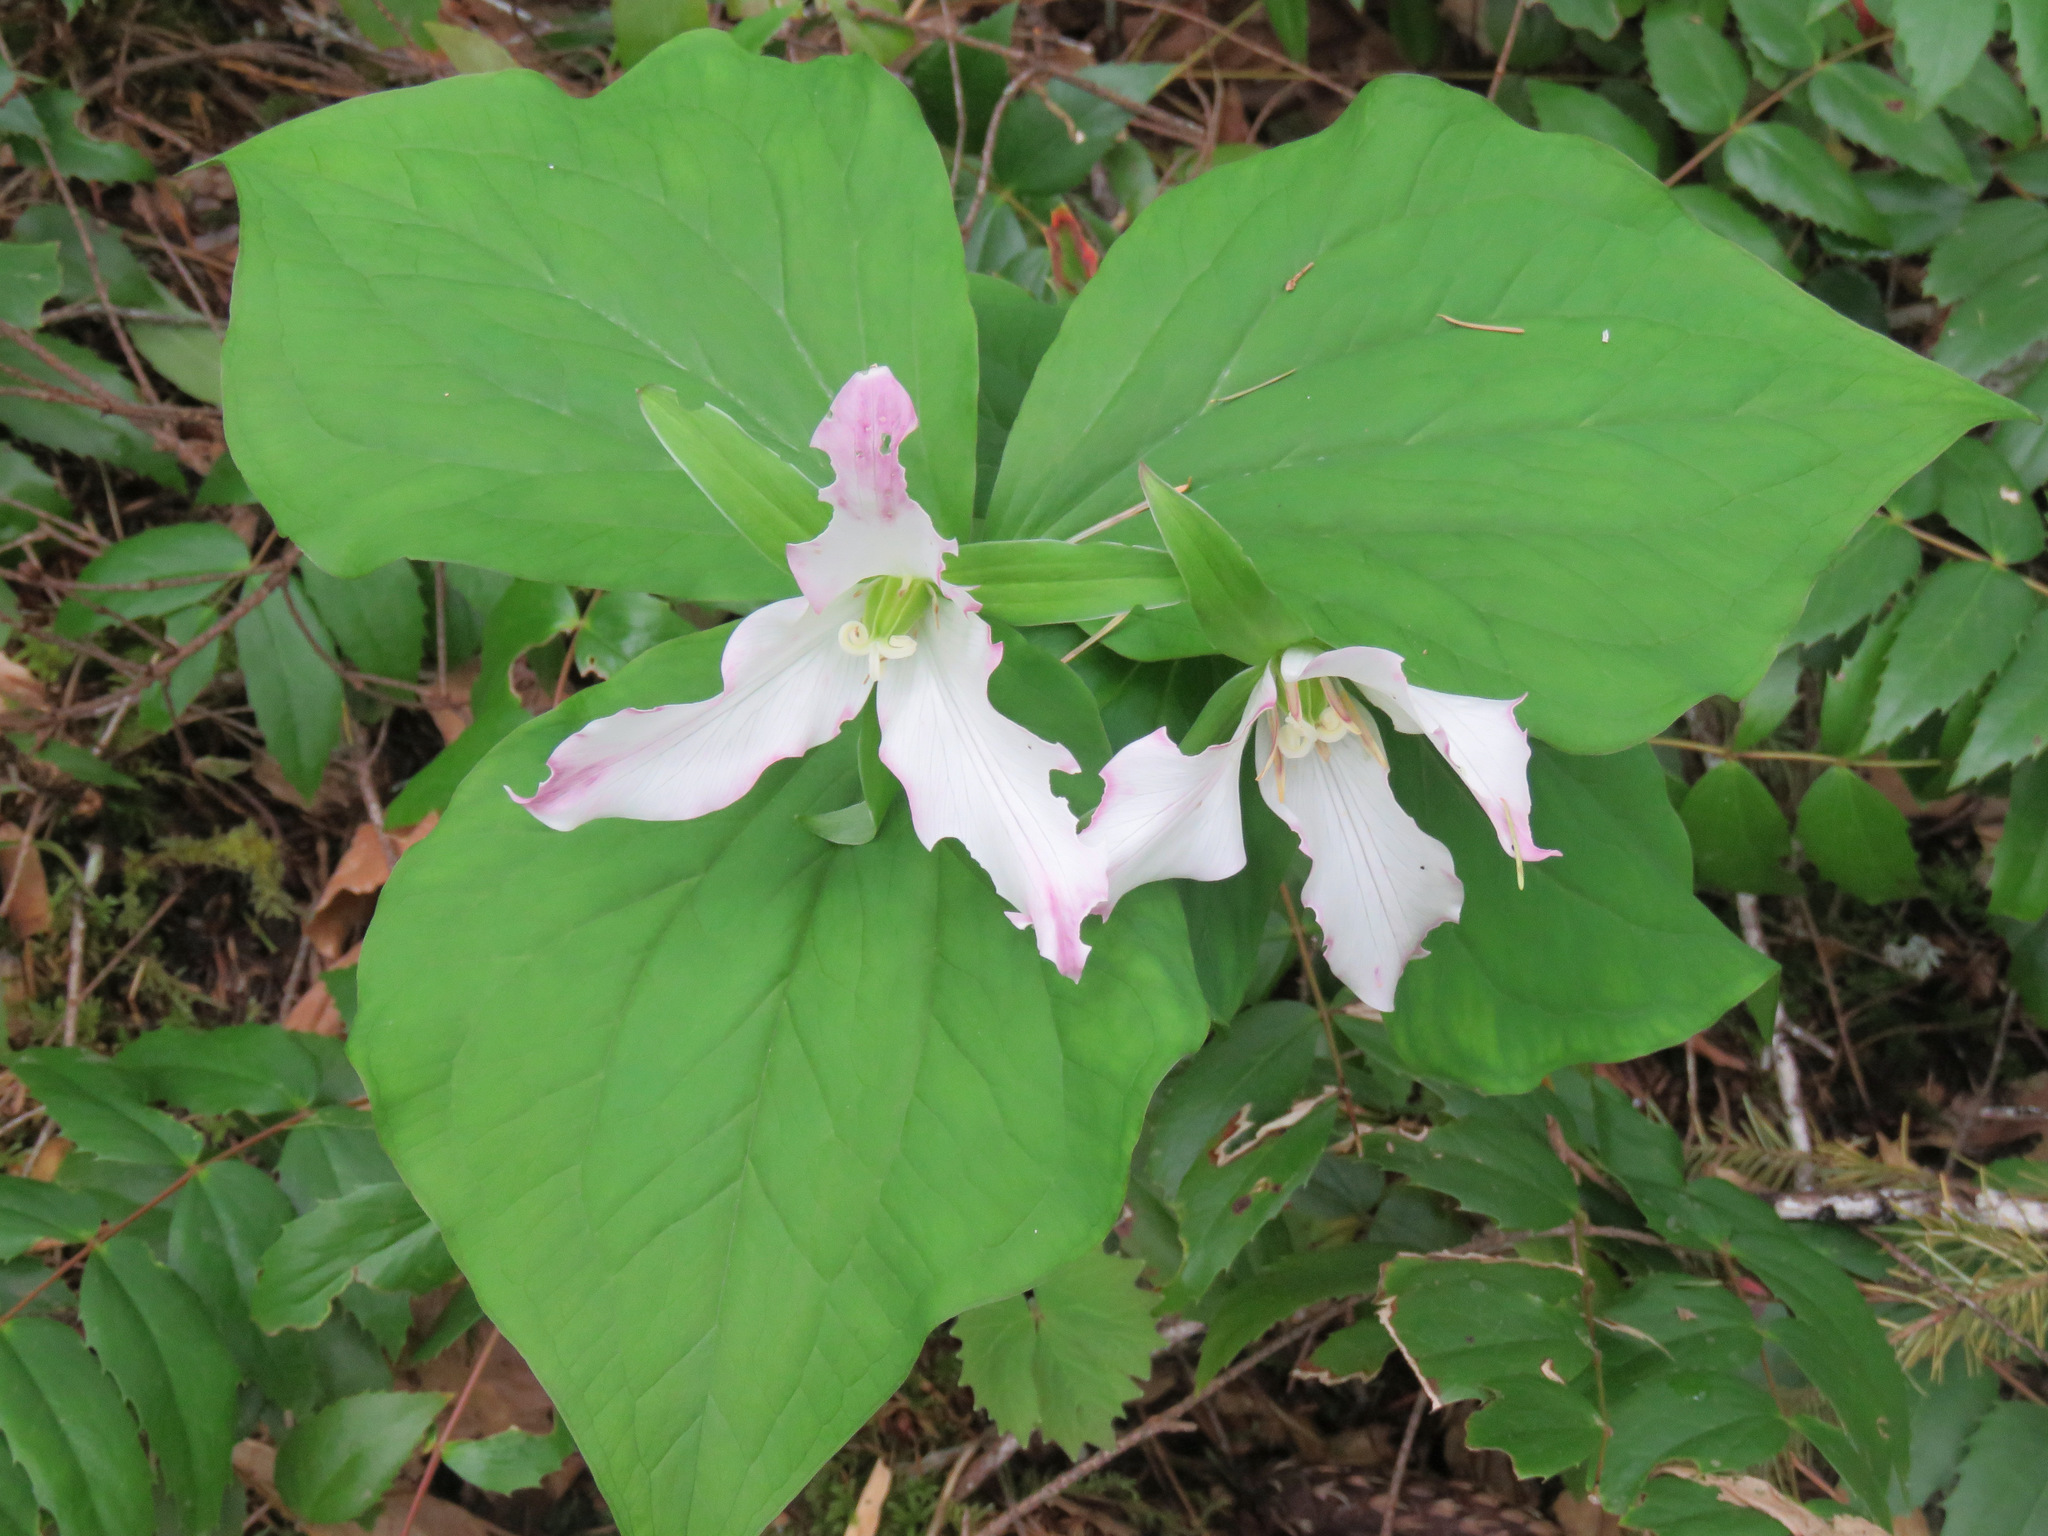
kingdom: Plantae
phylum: Tracheophyta
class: Liliopsida
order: Liliales
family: Melanthiaceae
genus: Trillium
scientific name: Trillium ovatum
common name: Pacific trillium
